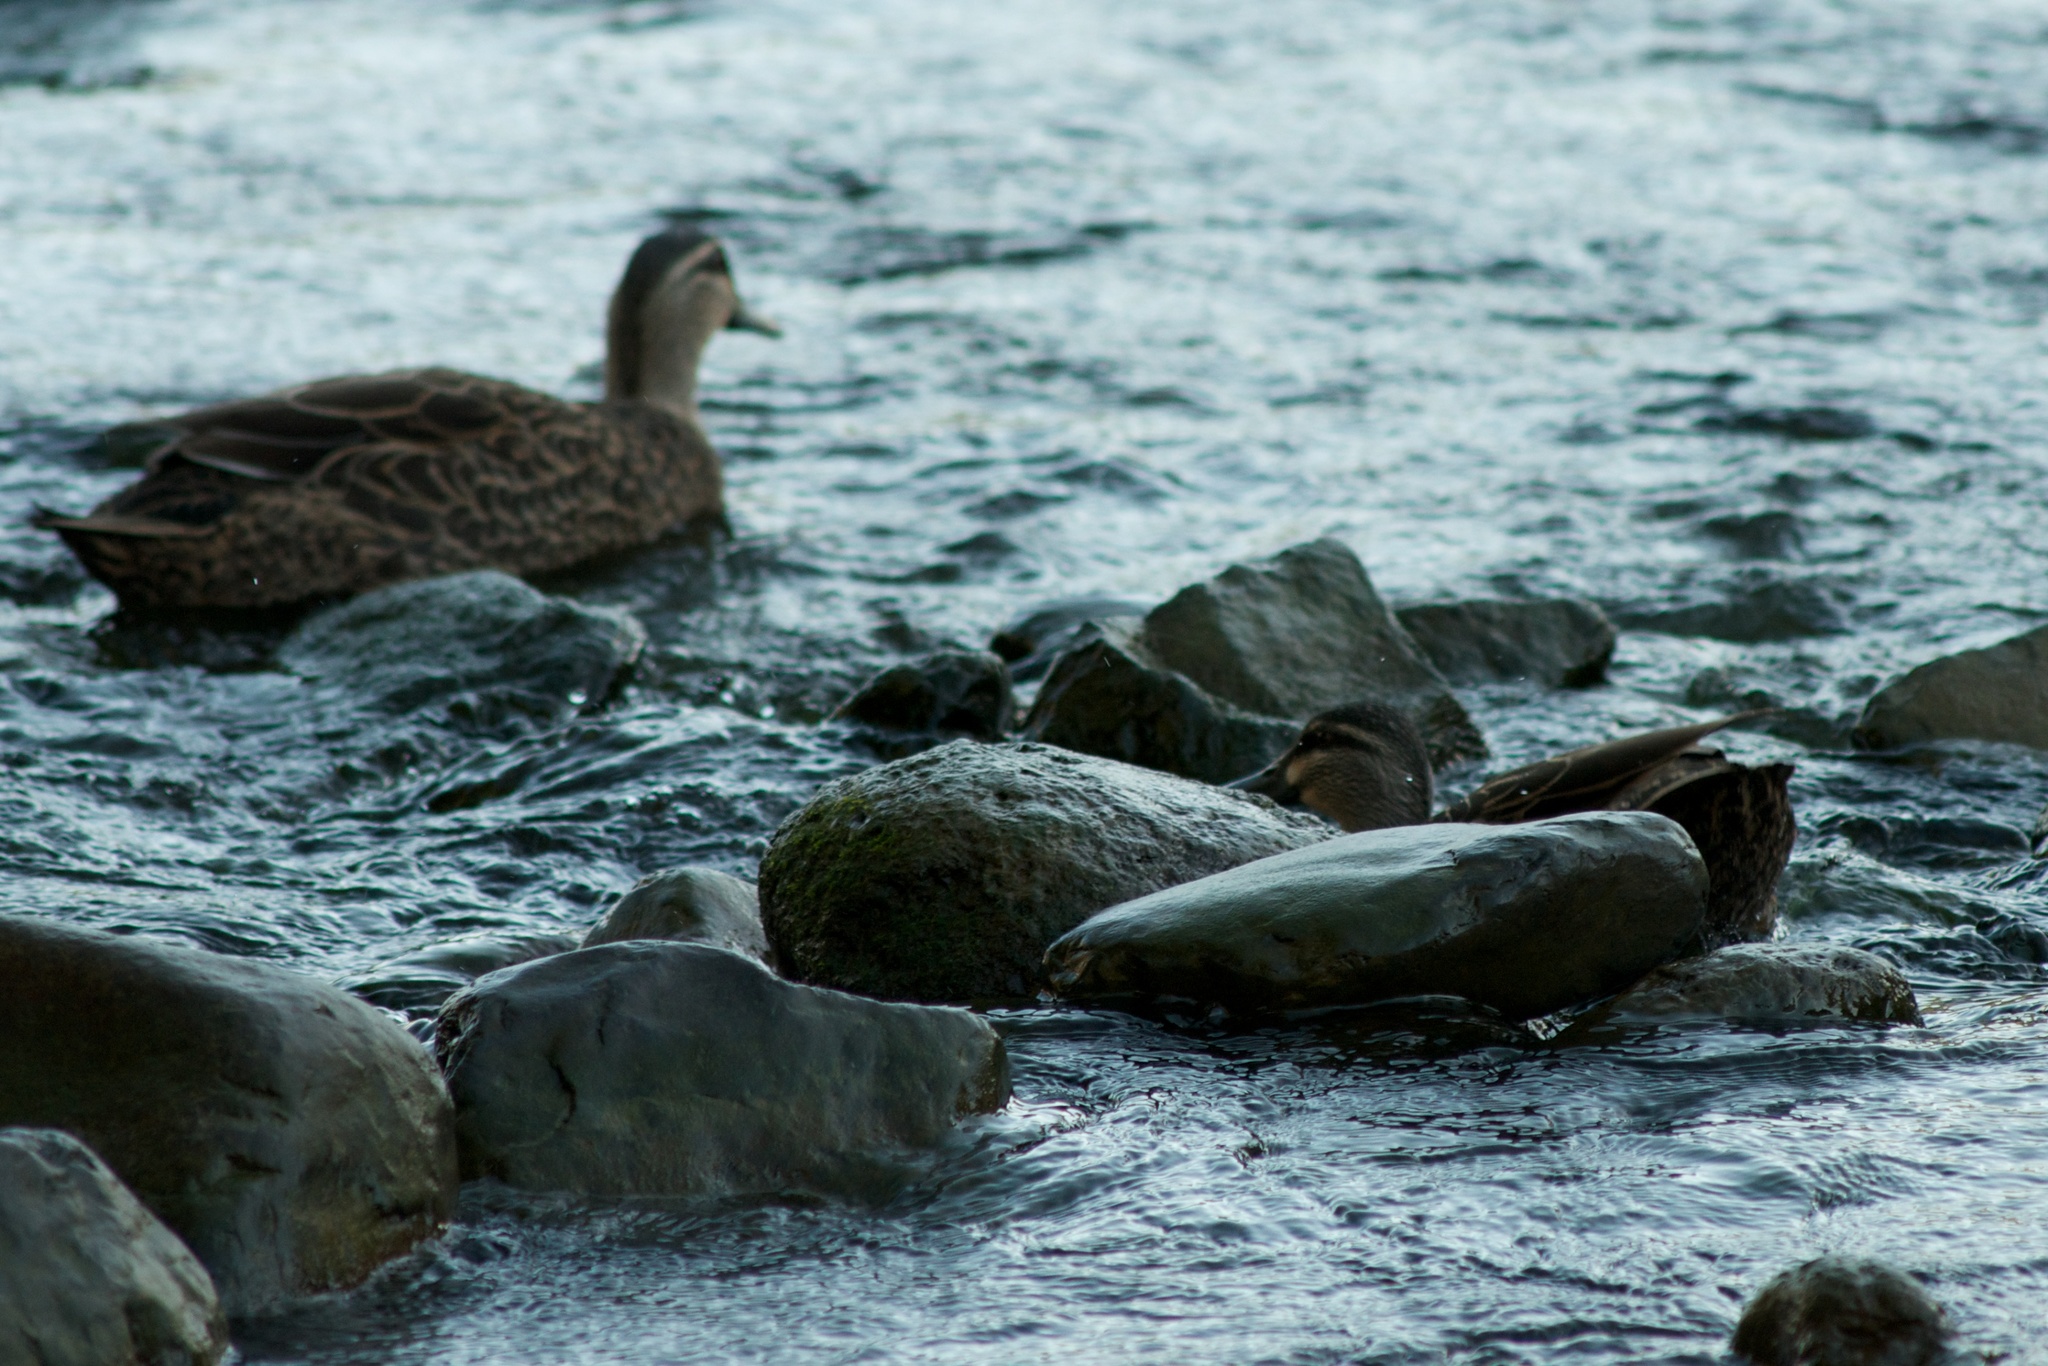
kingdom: Animalia
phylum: Chordata
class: Aves
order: Anseriformes
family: Anatidae
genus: Anas
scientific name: Anas
